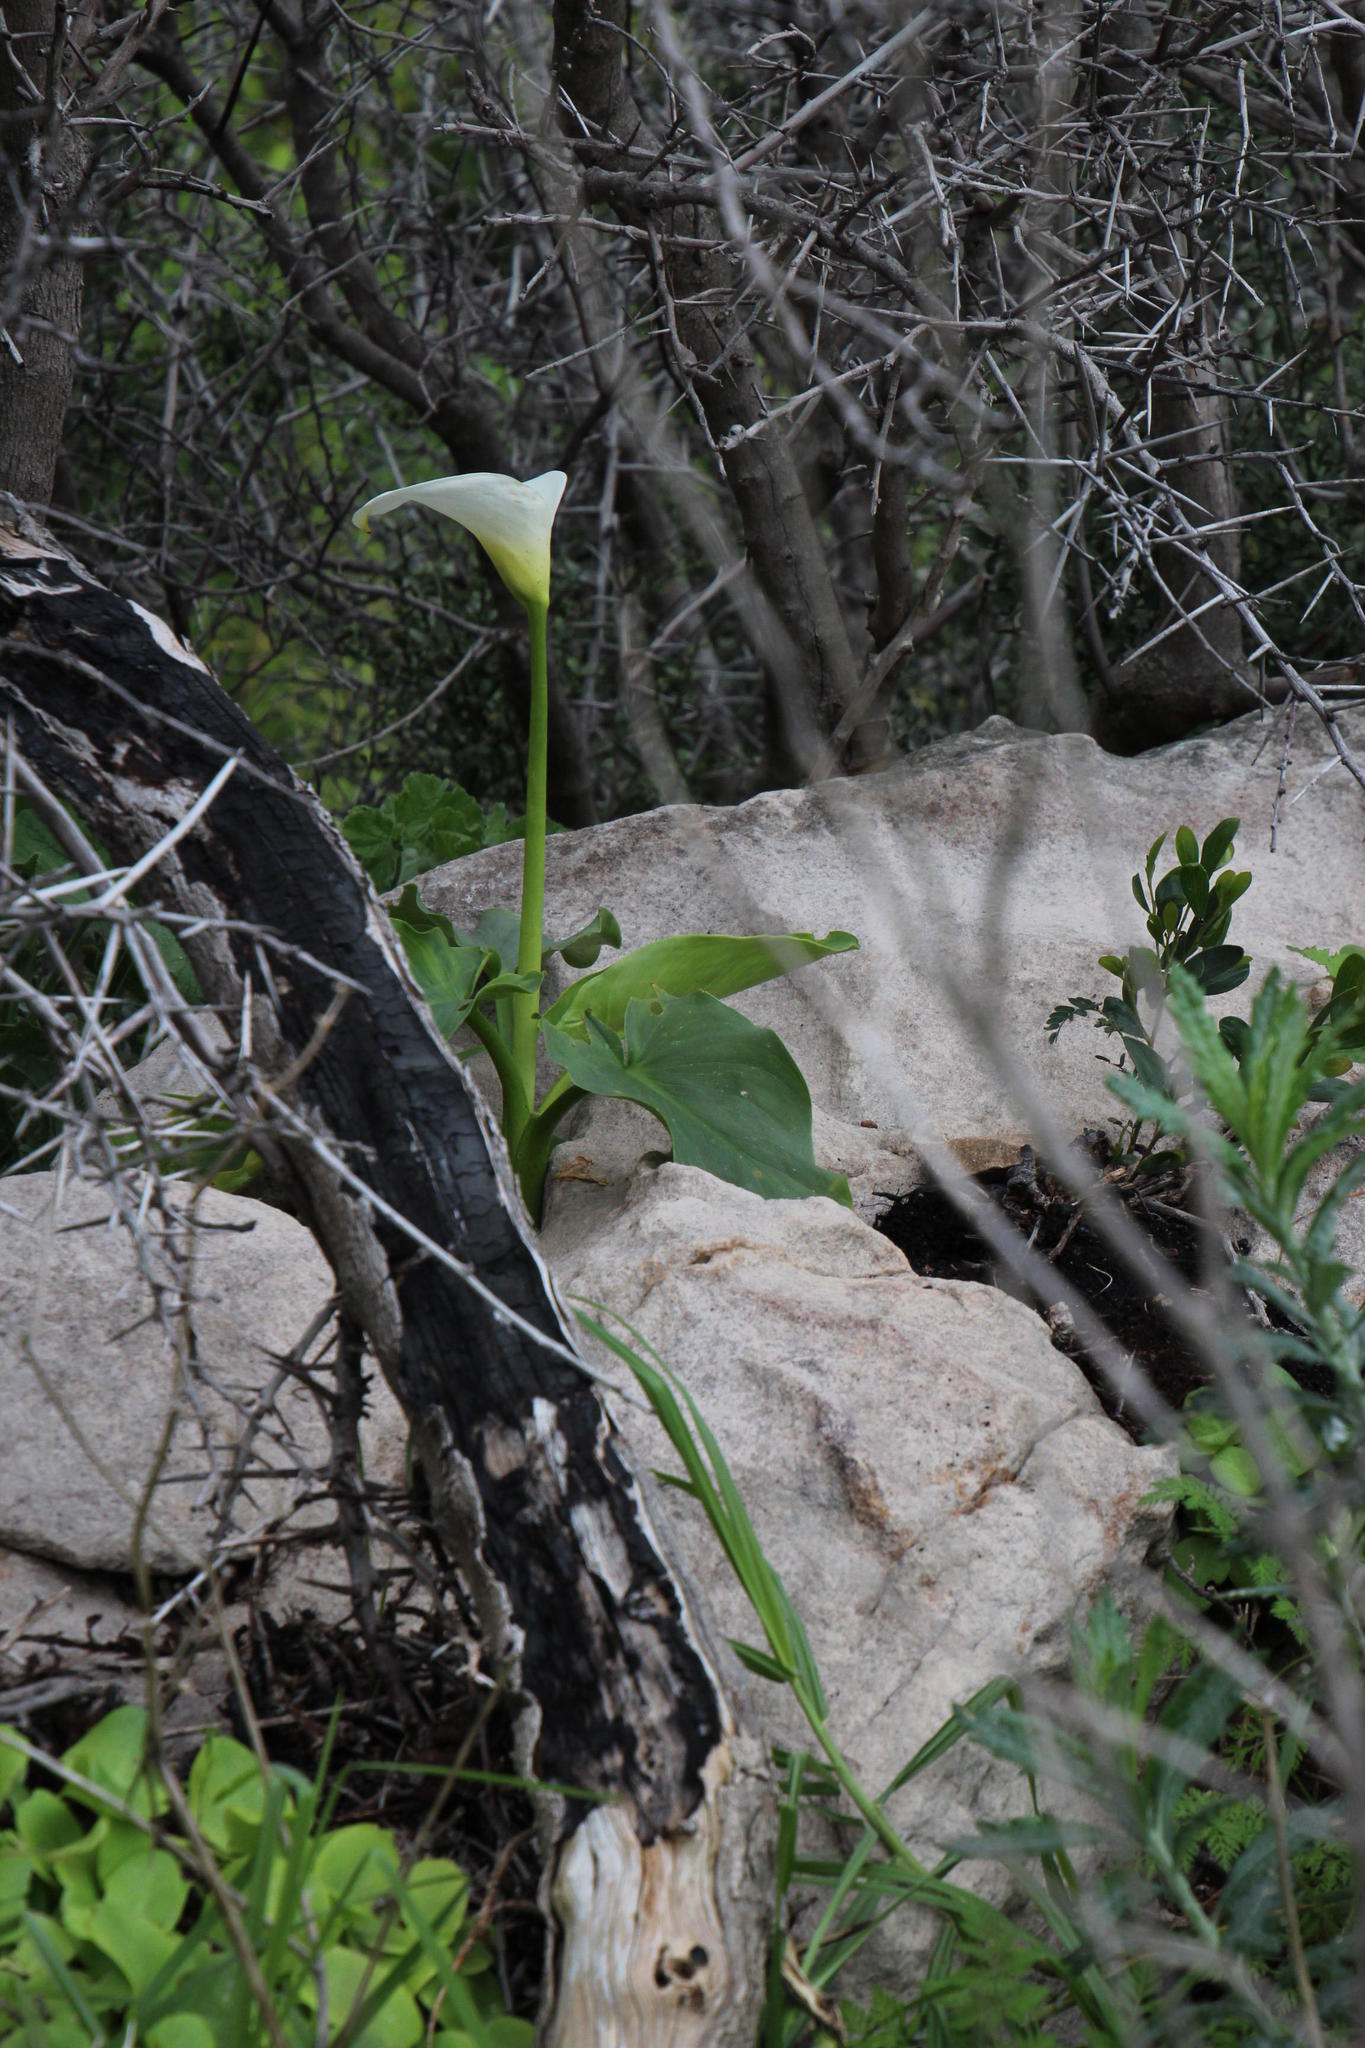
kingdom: Plantae
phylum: Tracheophyta
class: Liliopsida
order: Alismatales
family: Araceae
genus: Zantedeschia
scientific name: Zantedeschia aethiopica
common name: Altar-lily
